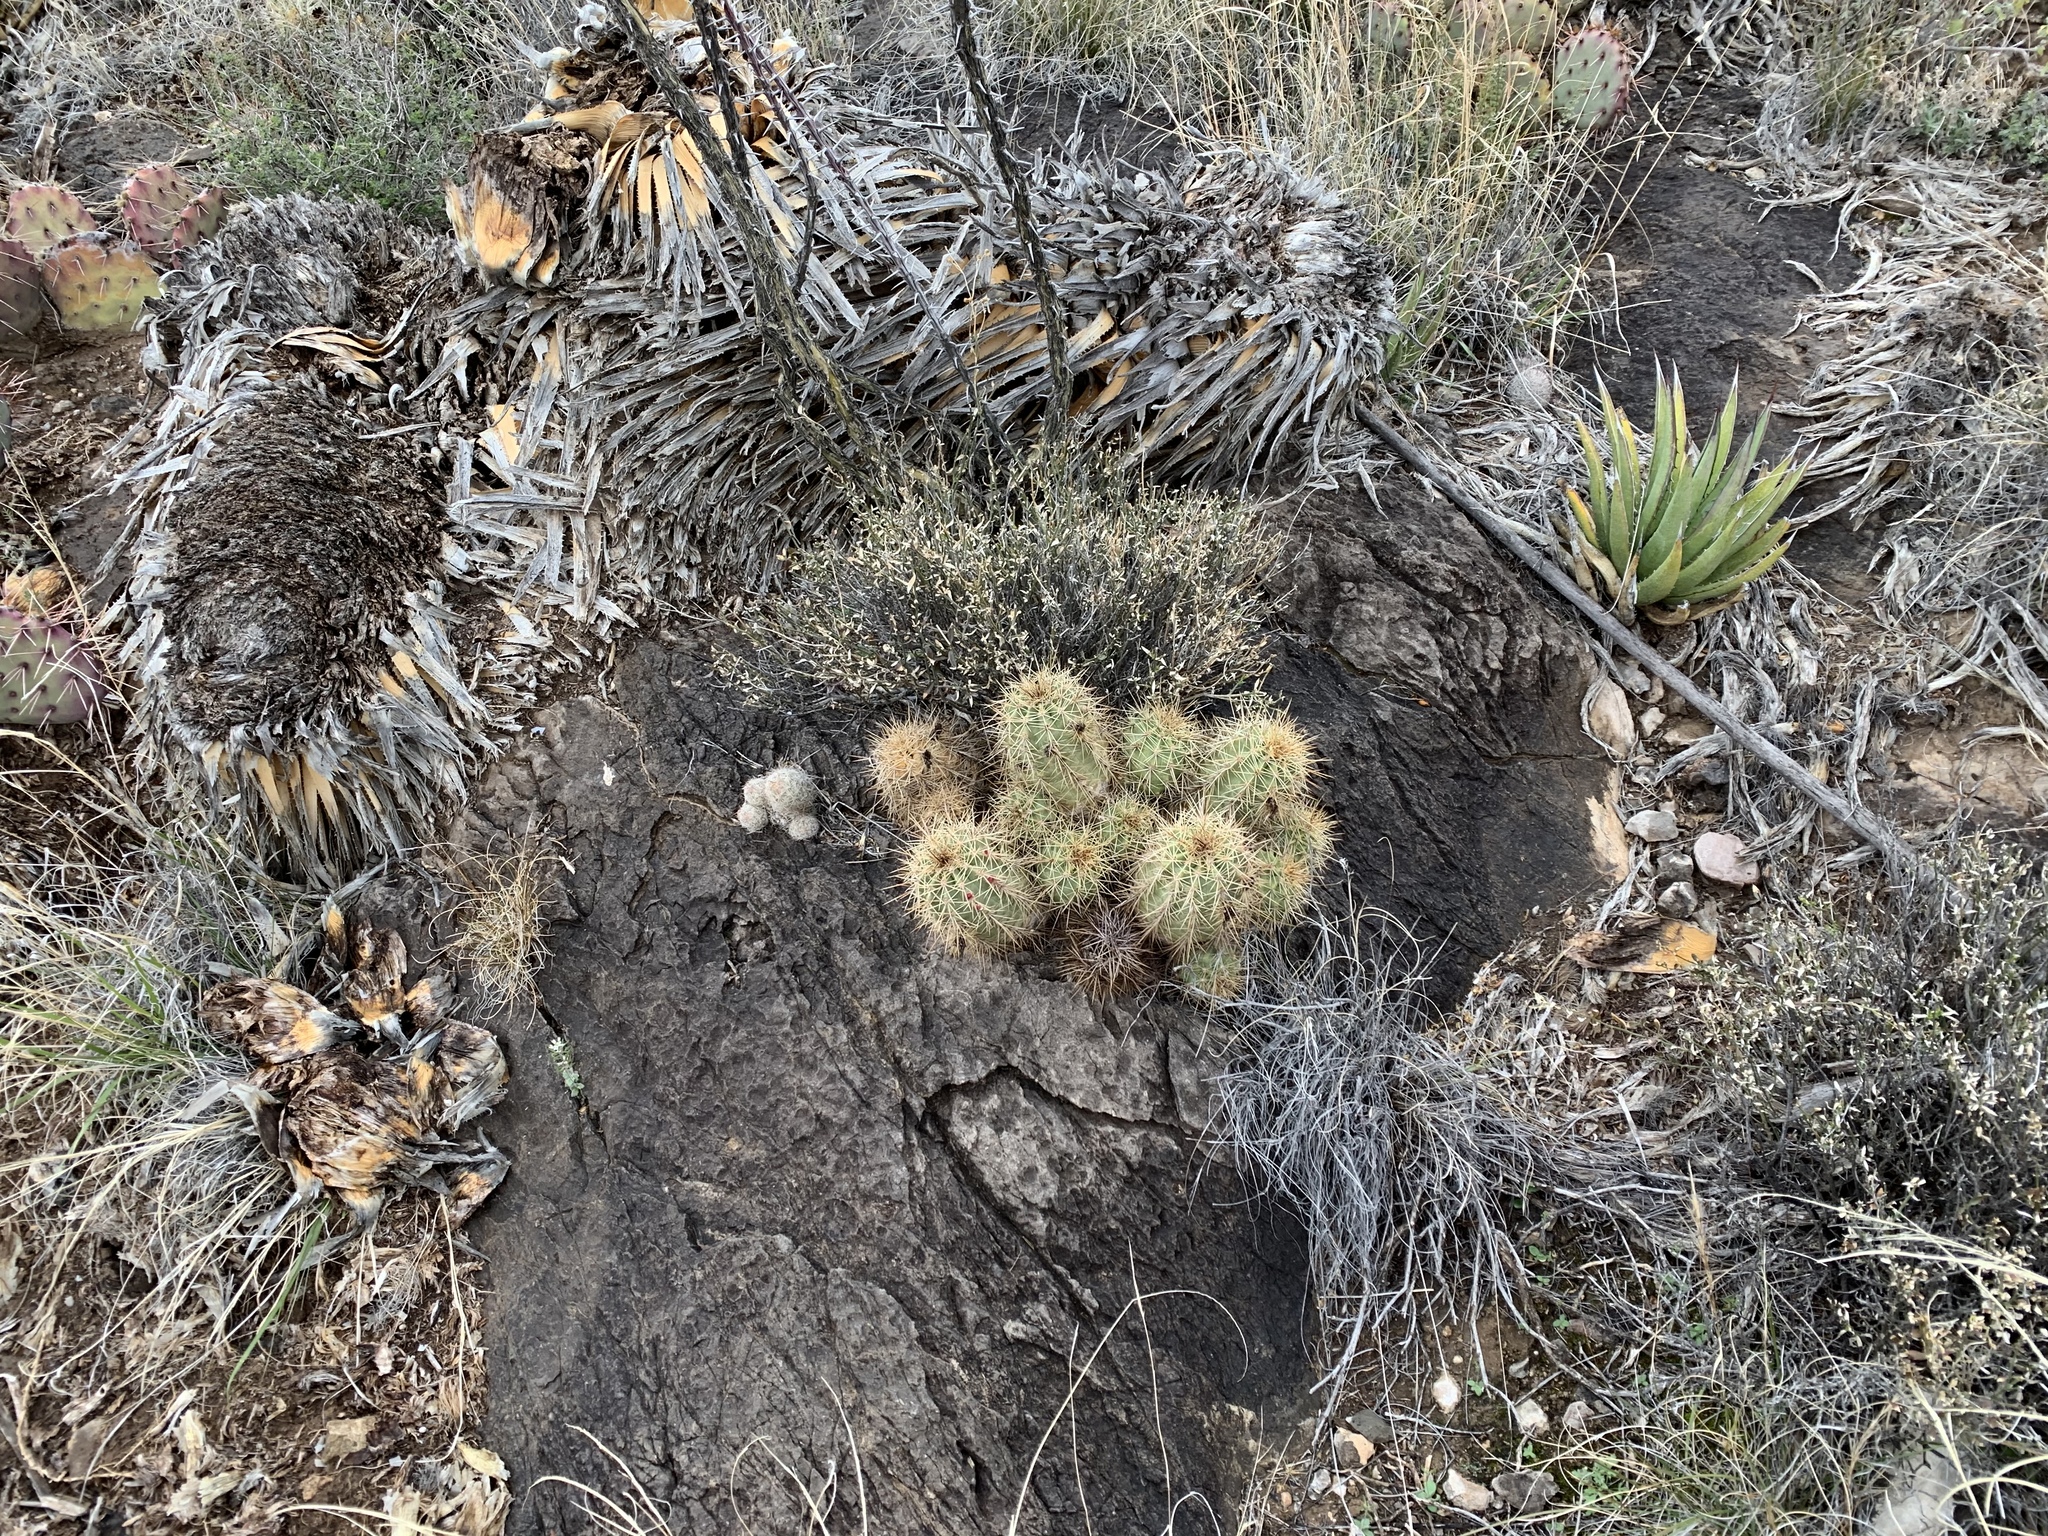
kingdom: Plantae
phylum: Tracheophyta
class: Magnoliopsida
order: Caryophyllales
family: Cactaceae
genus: Pelecyphora
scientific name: Pelecyphora tuberculosa
